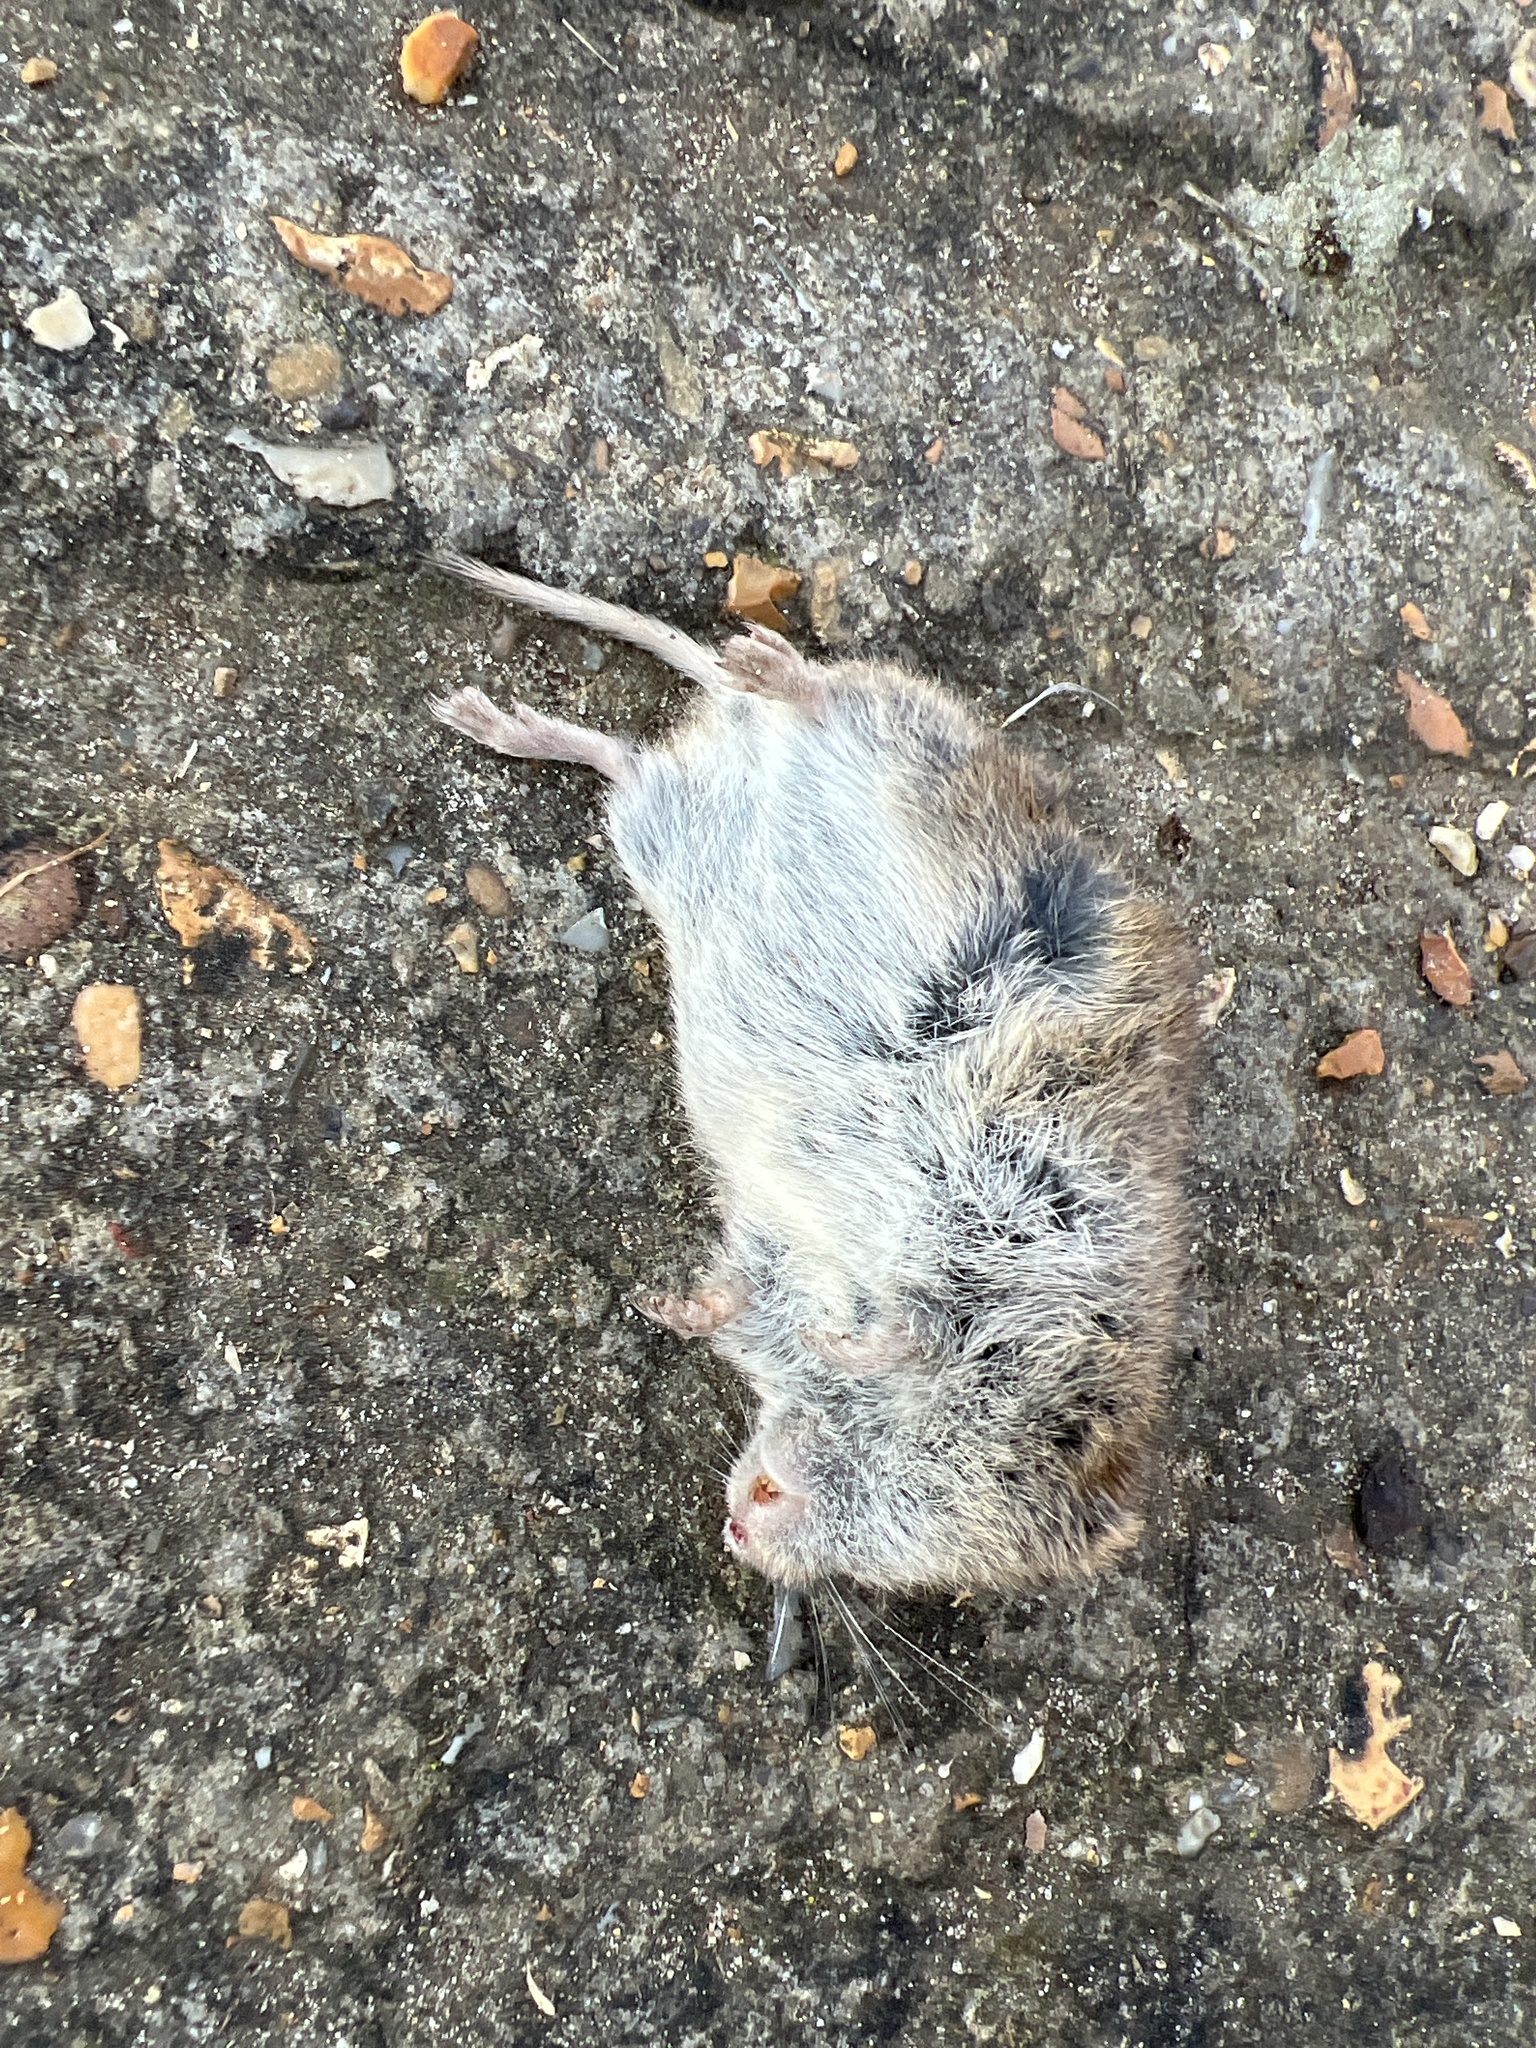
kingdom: Animalia
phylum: Chordata
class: Mammalia
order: Rodentia
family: Cricetidae
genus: Microtus
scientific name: Microtus agrestis
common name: Field vole
